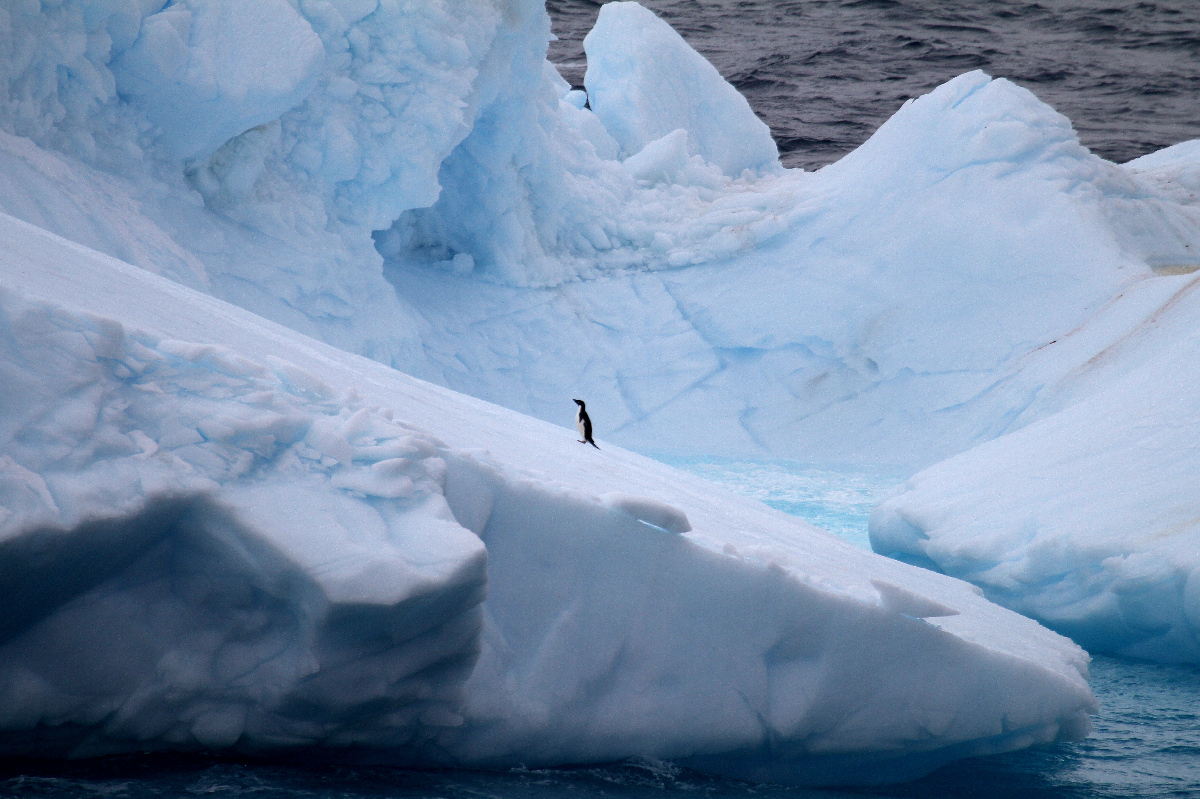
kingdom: Animalia
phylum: Chordata
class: Aves
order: Sphenisciformes
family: Spheniscidae
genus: Pygoscelis
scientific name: Pygoscelis adeliae
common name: Adelie penguin
